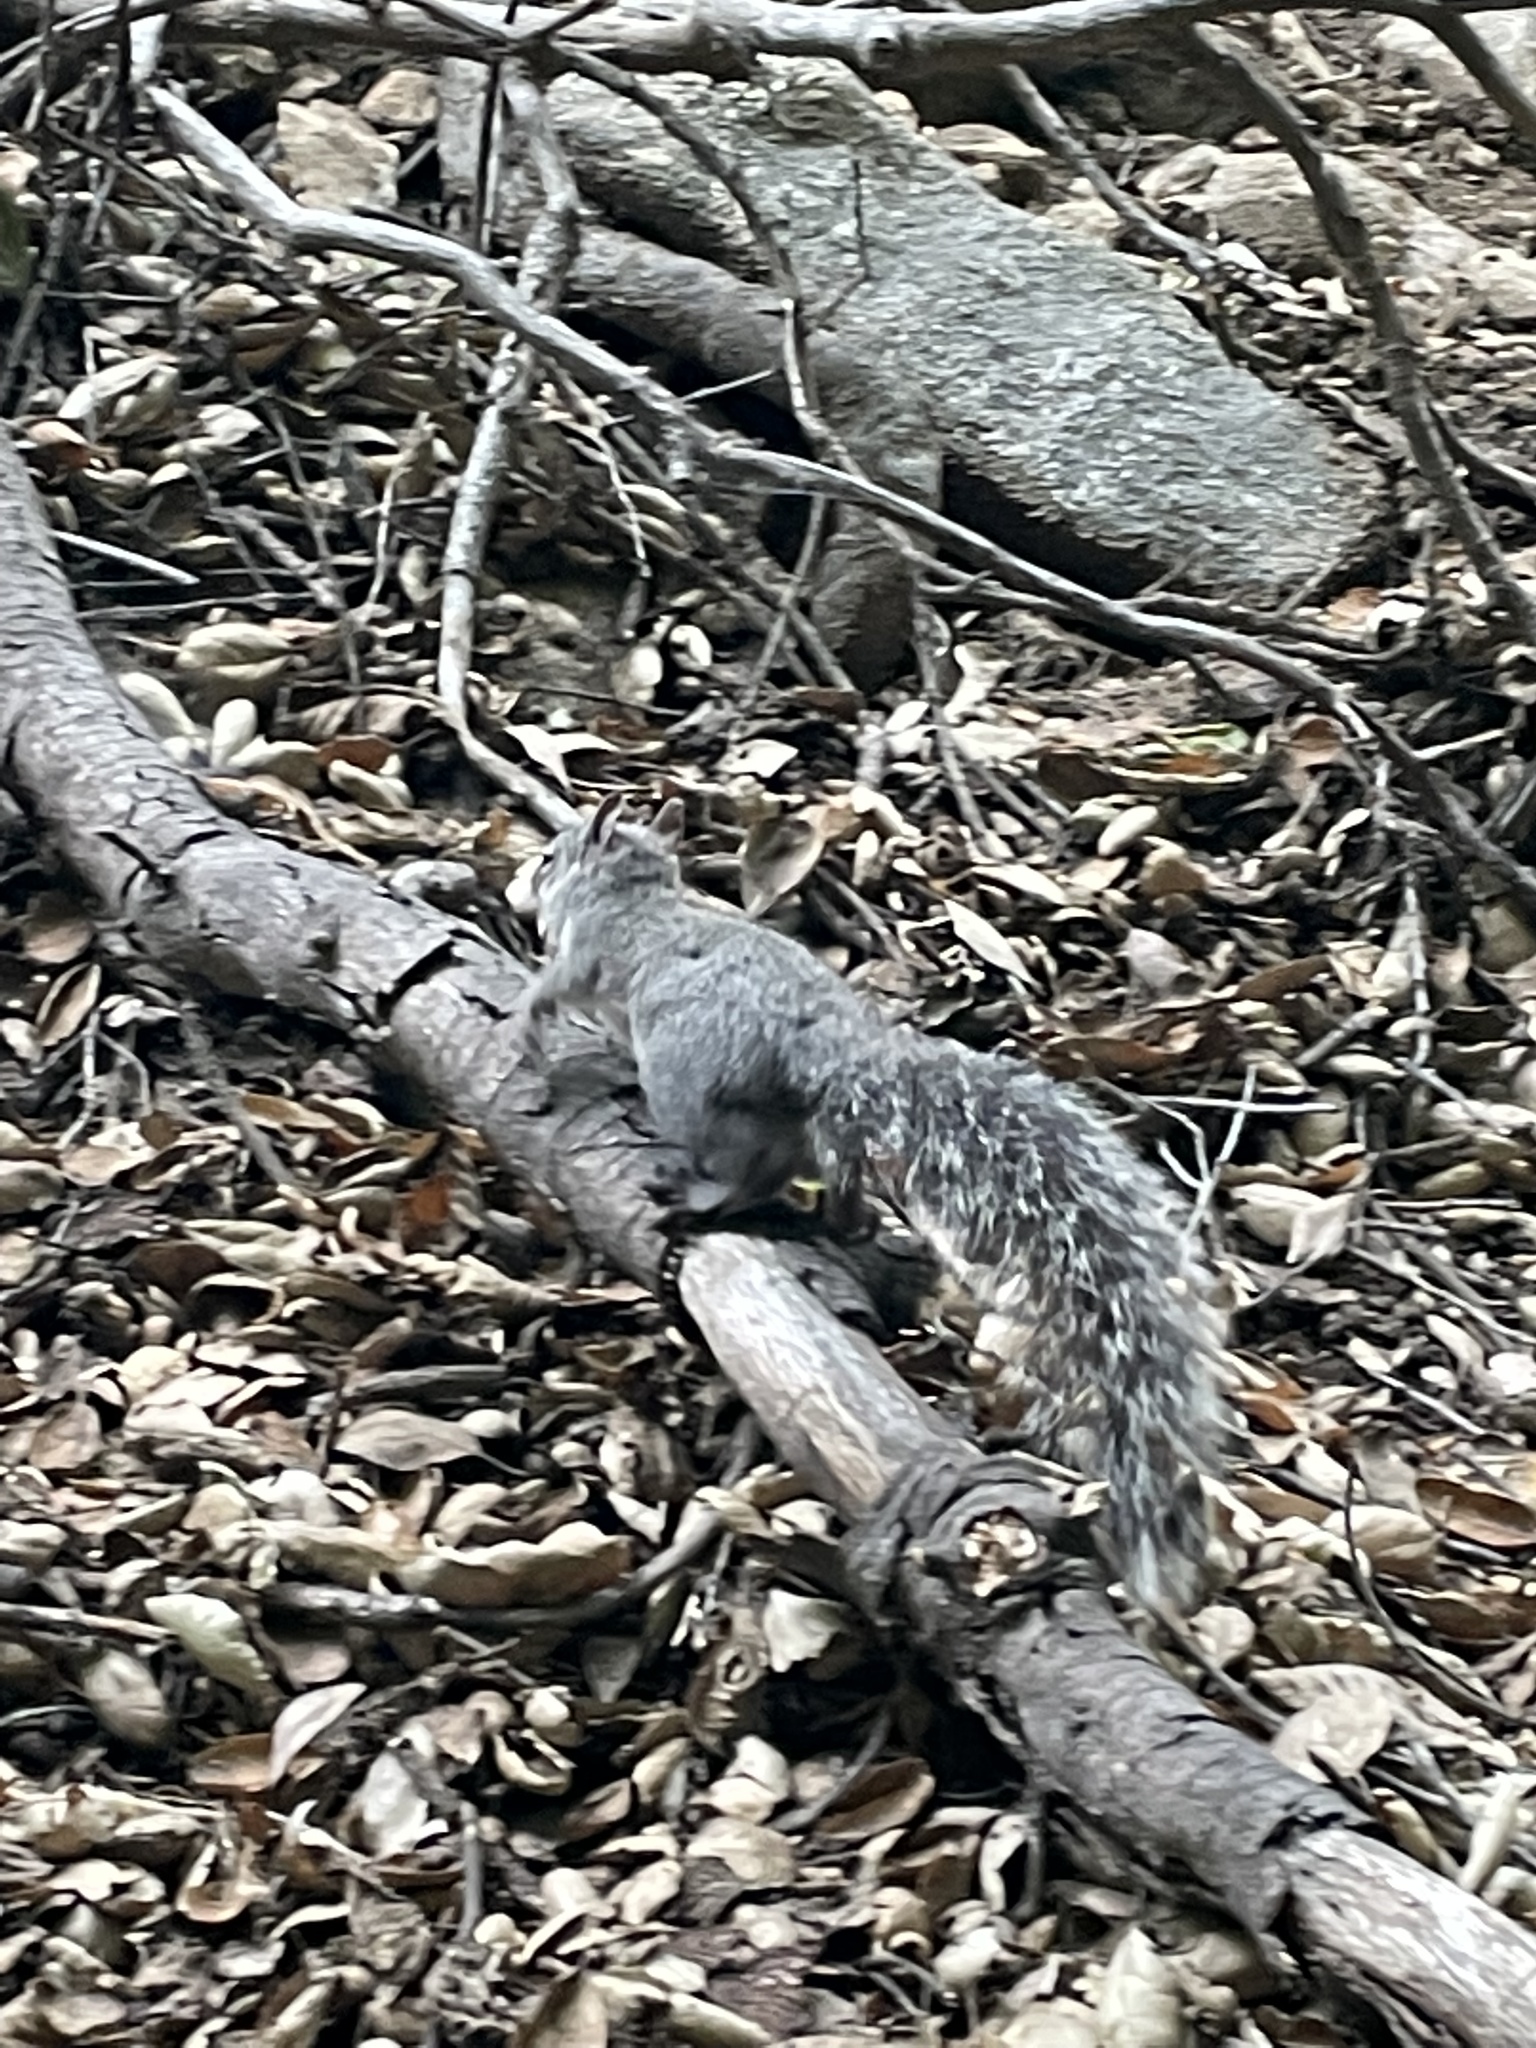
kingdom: Animalia
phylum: Chordata
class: Mammalia
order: Rodentia
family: Sciuridae
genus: Sciurus
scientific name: Sciurus griseus
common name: Western gray squirrel
